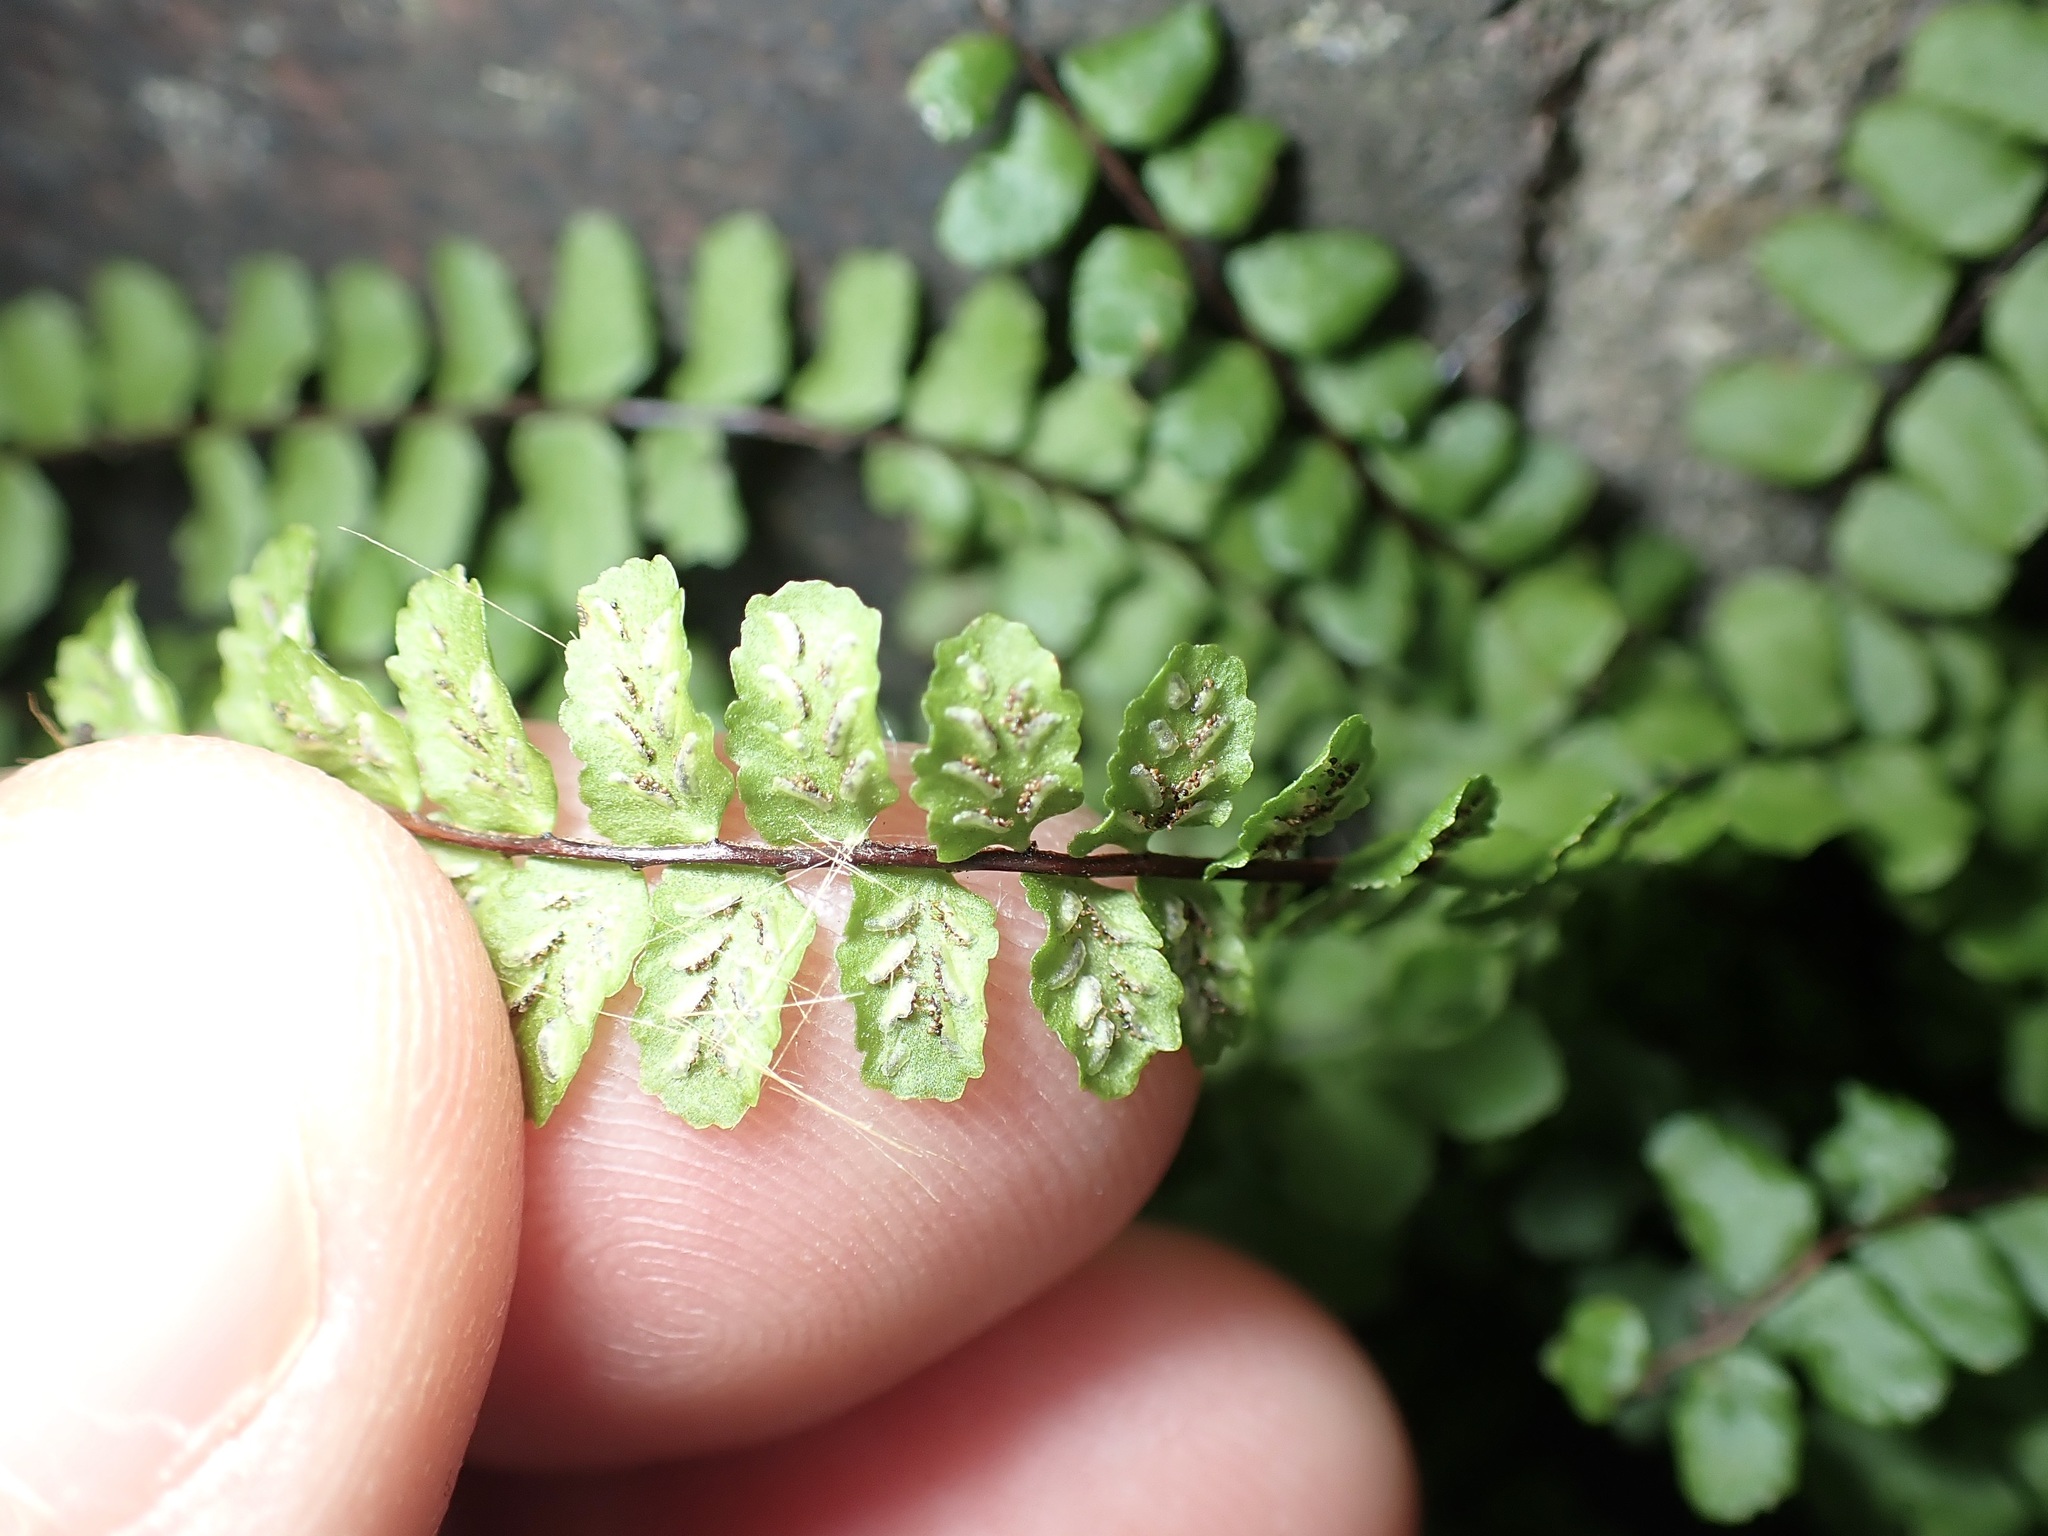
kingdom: Plantae
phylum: Tracheophyta
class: Polypodiopsida
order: Polypodiales
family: Aspleniaceae
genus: Asplenium
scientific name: Asplenium trichomanes
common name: Maidenhair spleenwort
